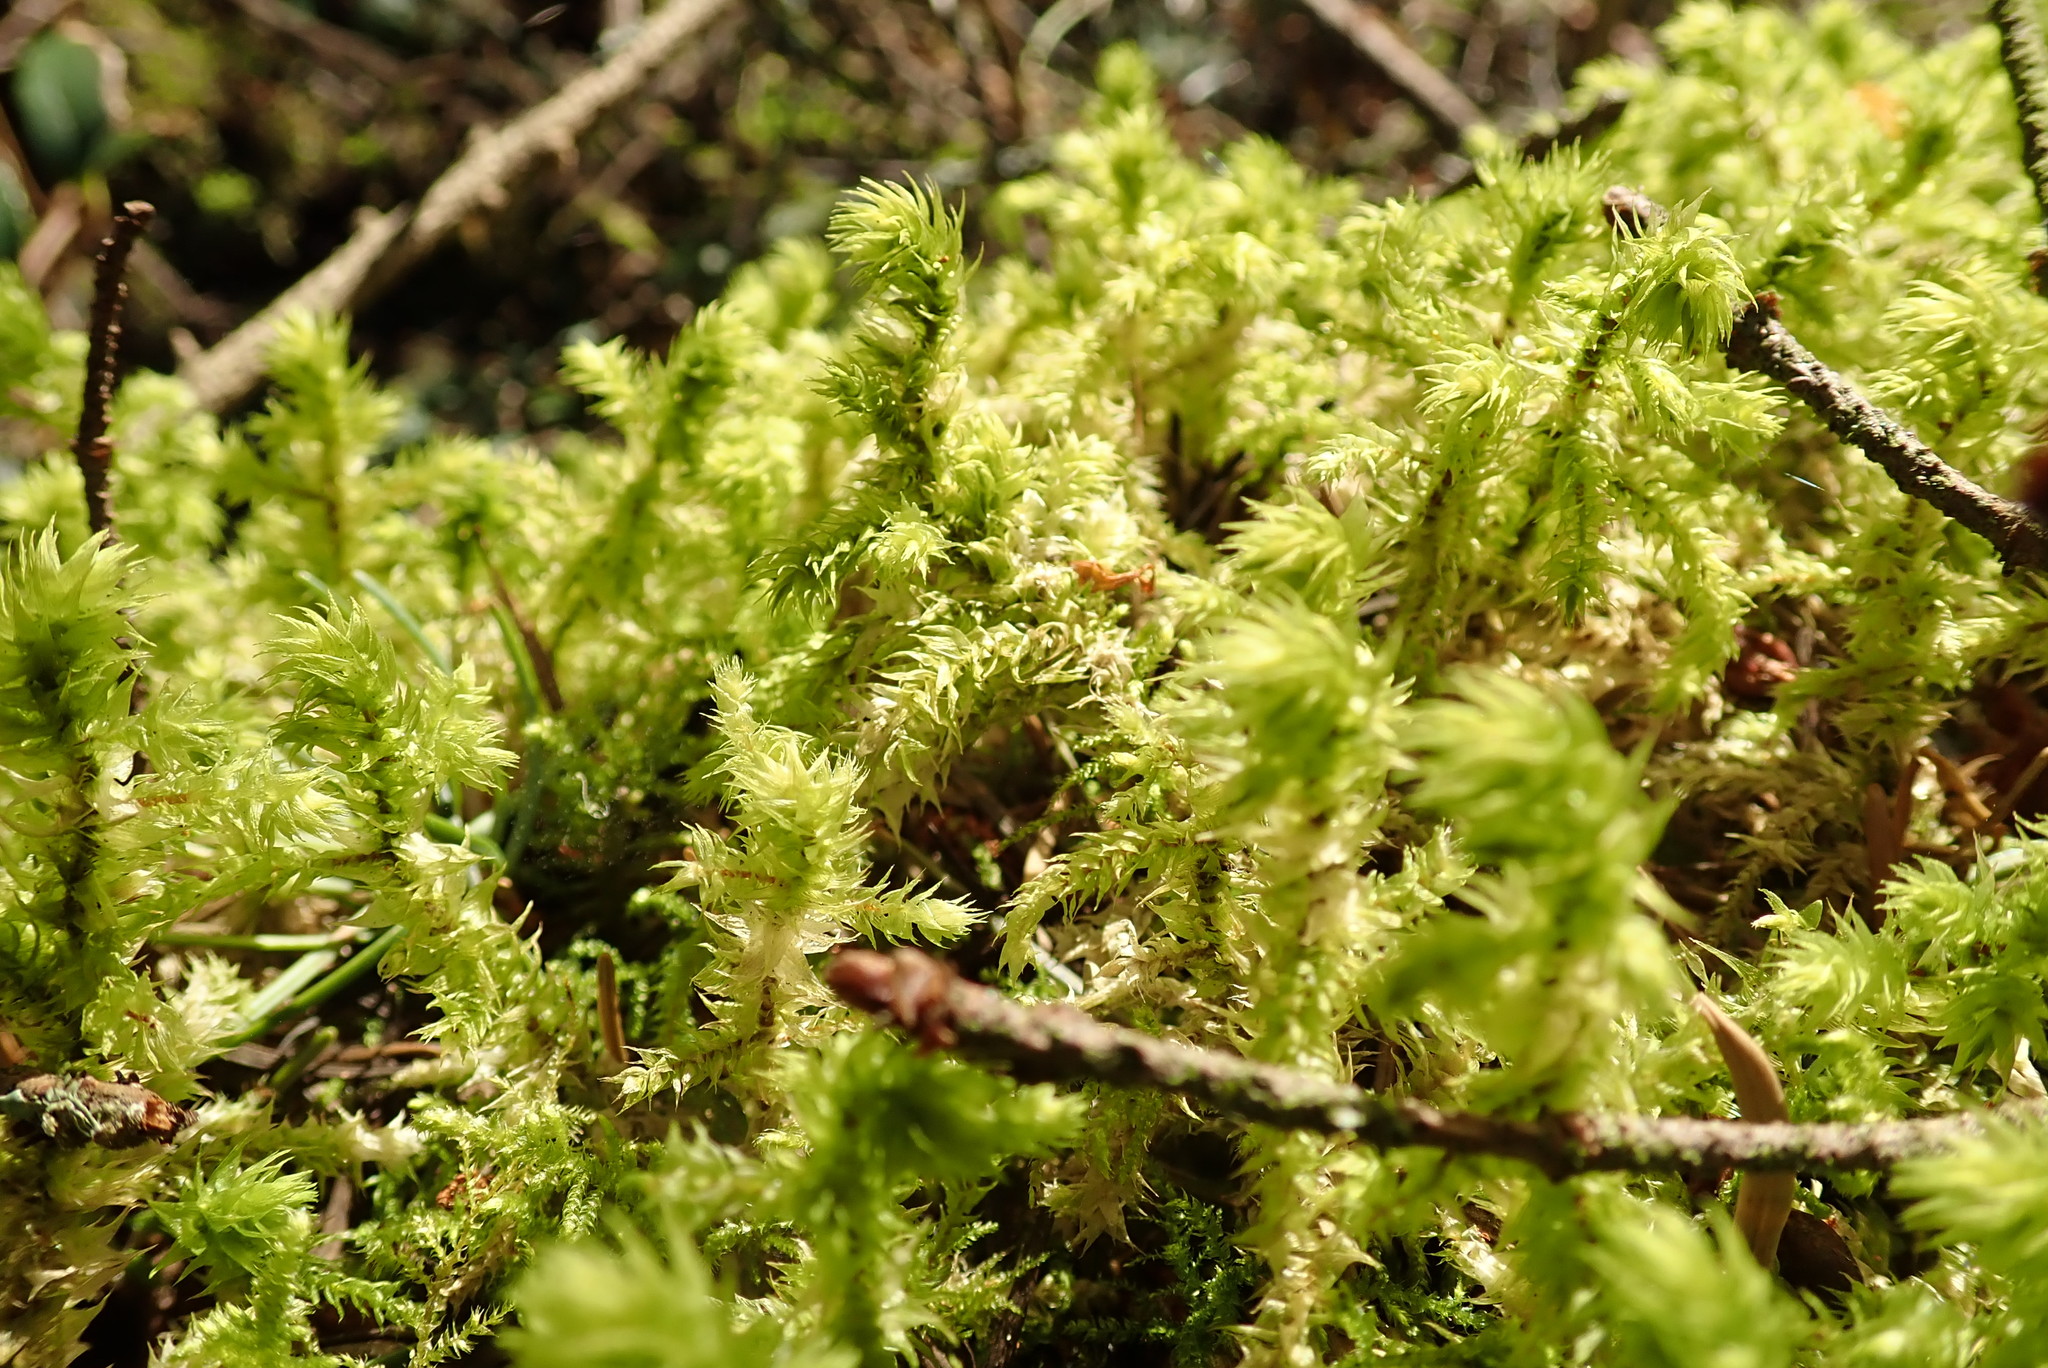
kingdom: Plantae
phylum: Bryophyta
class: Bryopsida
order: Hypnales
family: Hylocomiaceae
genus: Hylocomiadelphus
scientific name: Hylocomiadelphus triquetrus
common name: Rough goose neck moss
